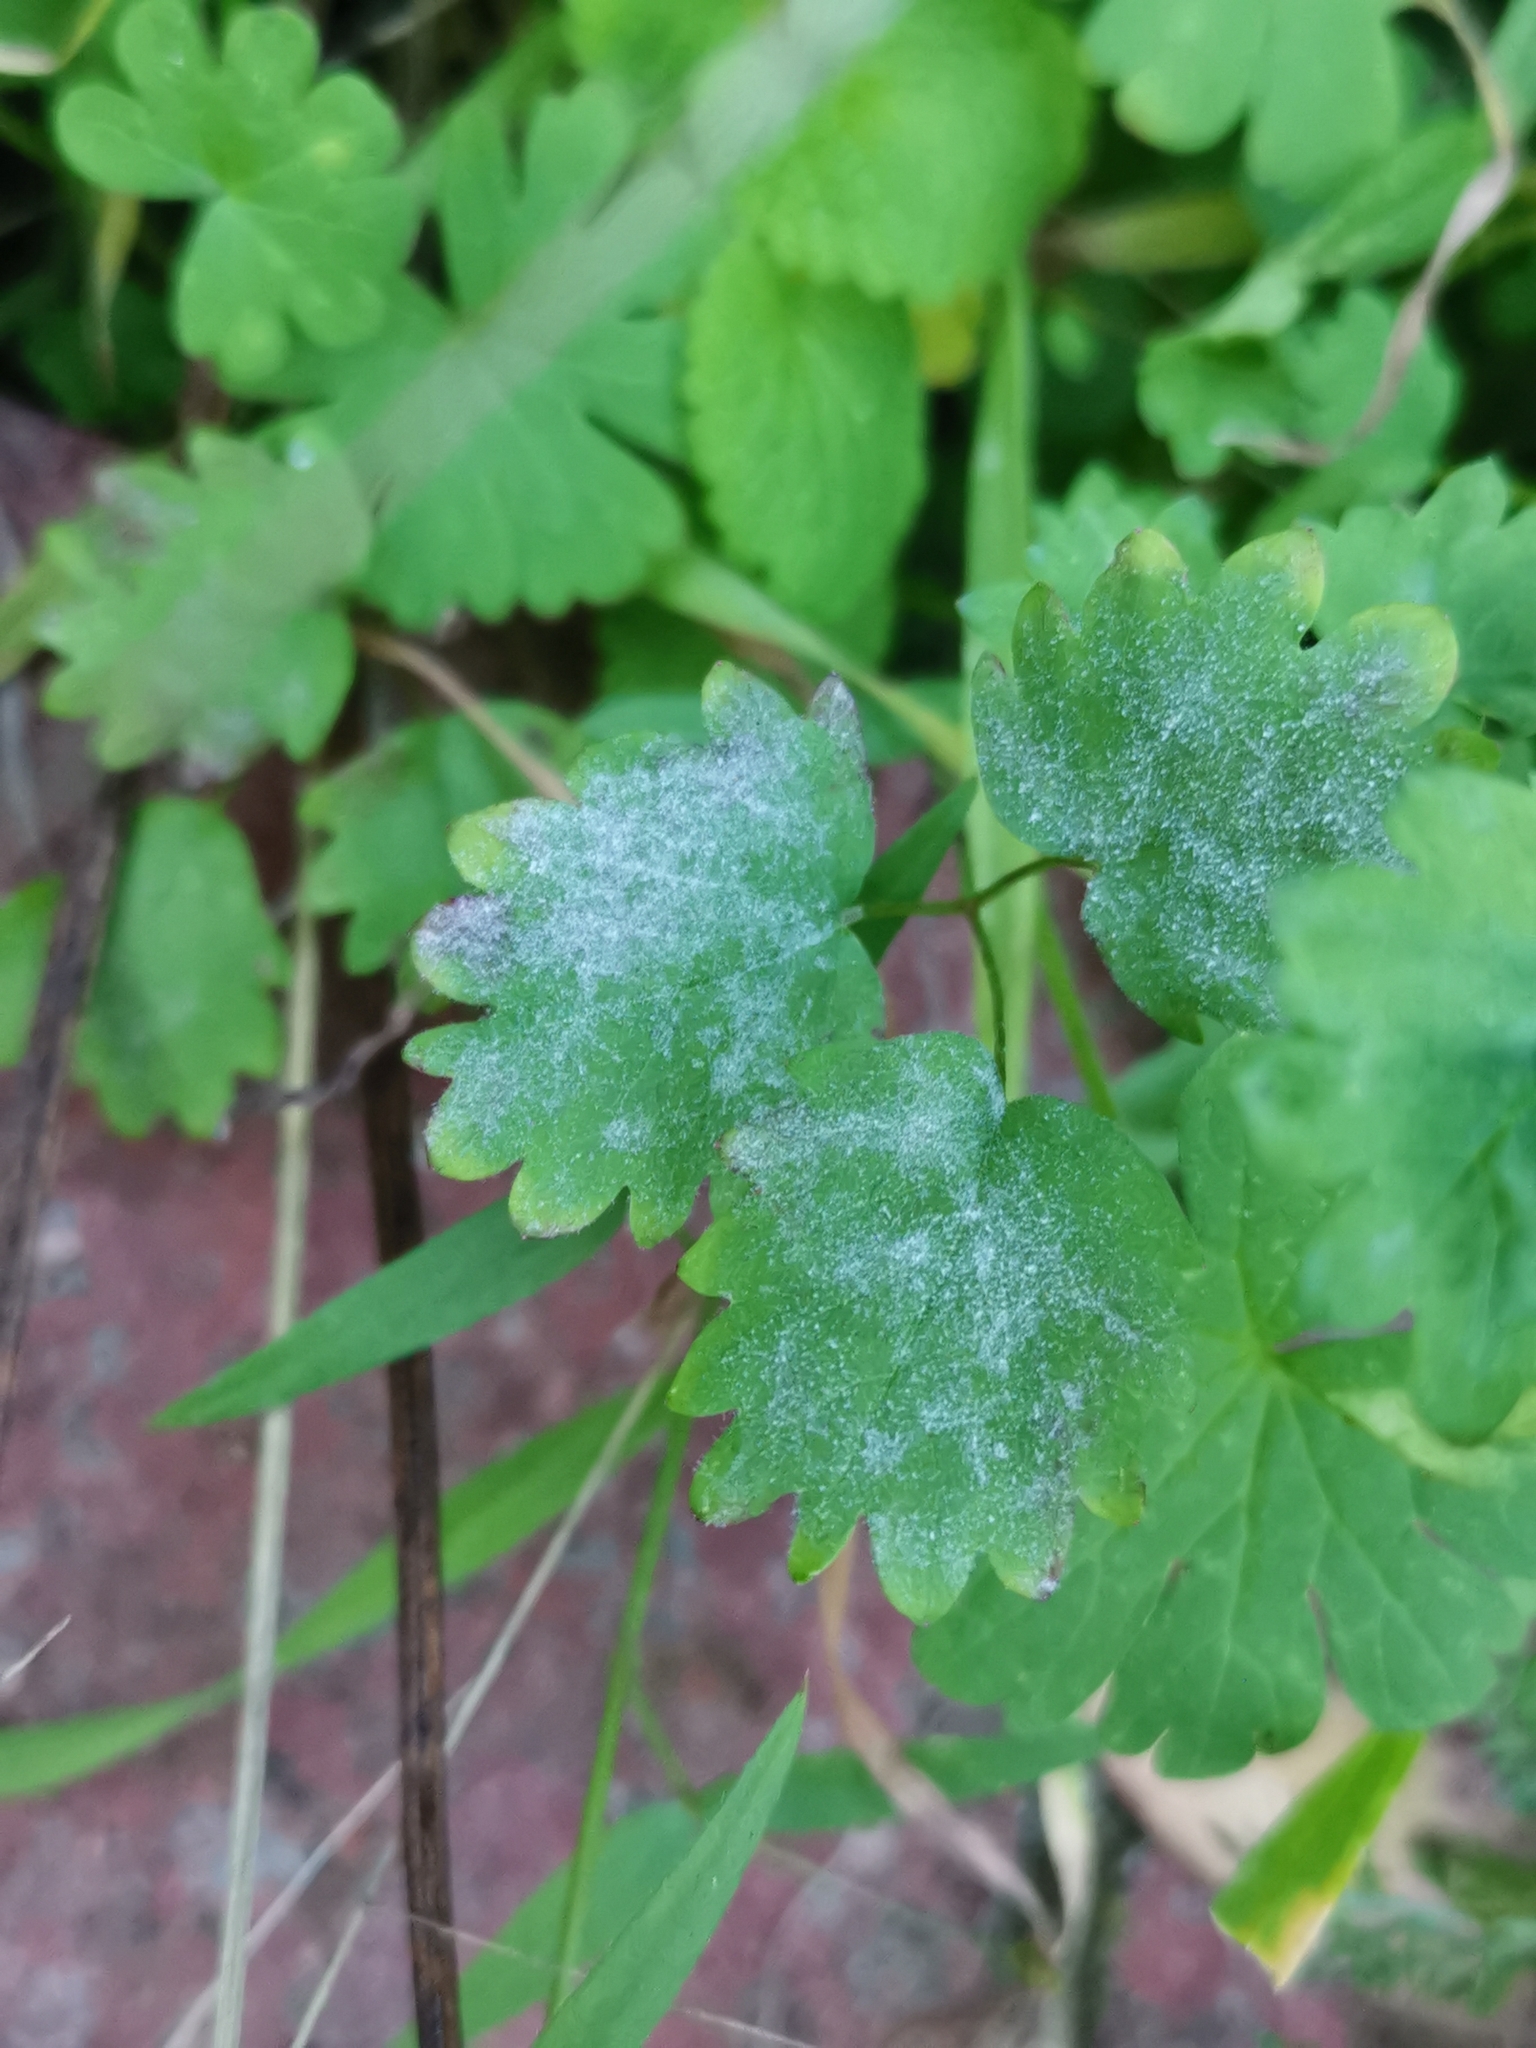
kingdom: Fungi
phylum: Ascomycota
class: Leotiomycetes
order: Helotiales
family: Erysiphaceae
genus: Podosphaera
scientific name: Podosphaera ferruginea
